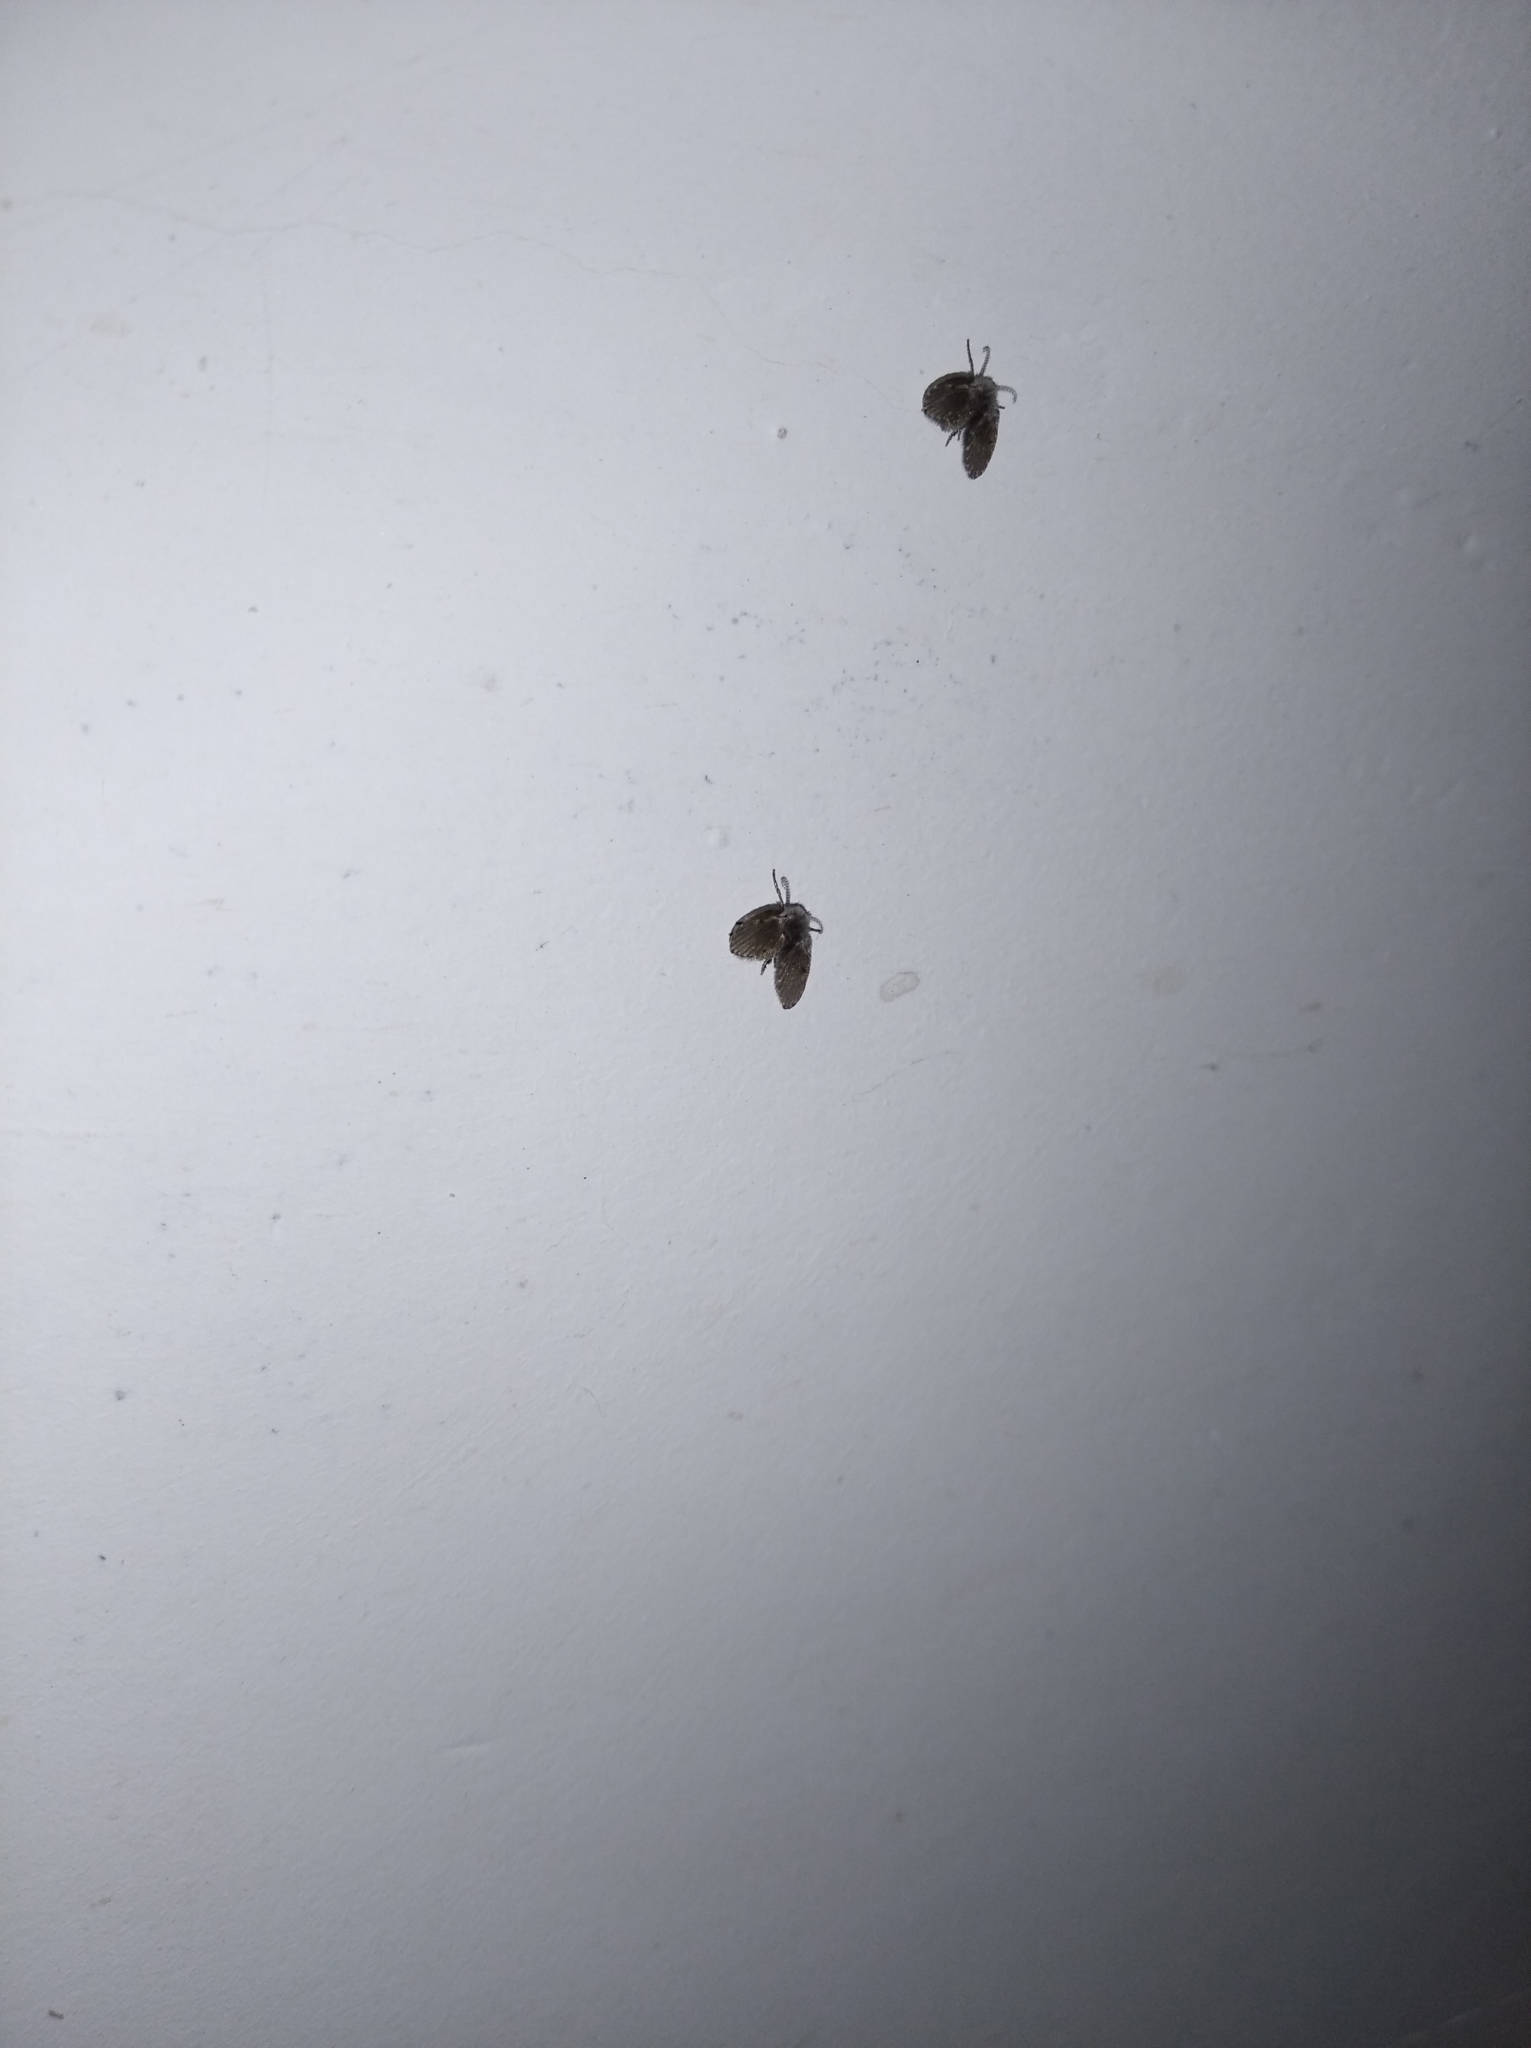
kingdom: Animalia
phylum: Arthropoda
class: Insecta
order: Diptera
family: Psychodidae
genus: Clogmia
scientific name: Clogmia albipunctatus
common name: White-spotted moth fly
